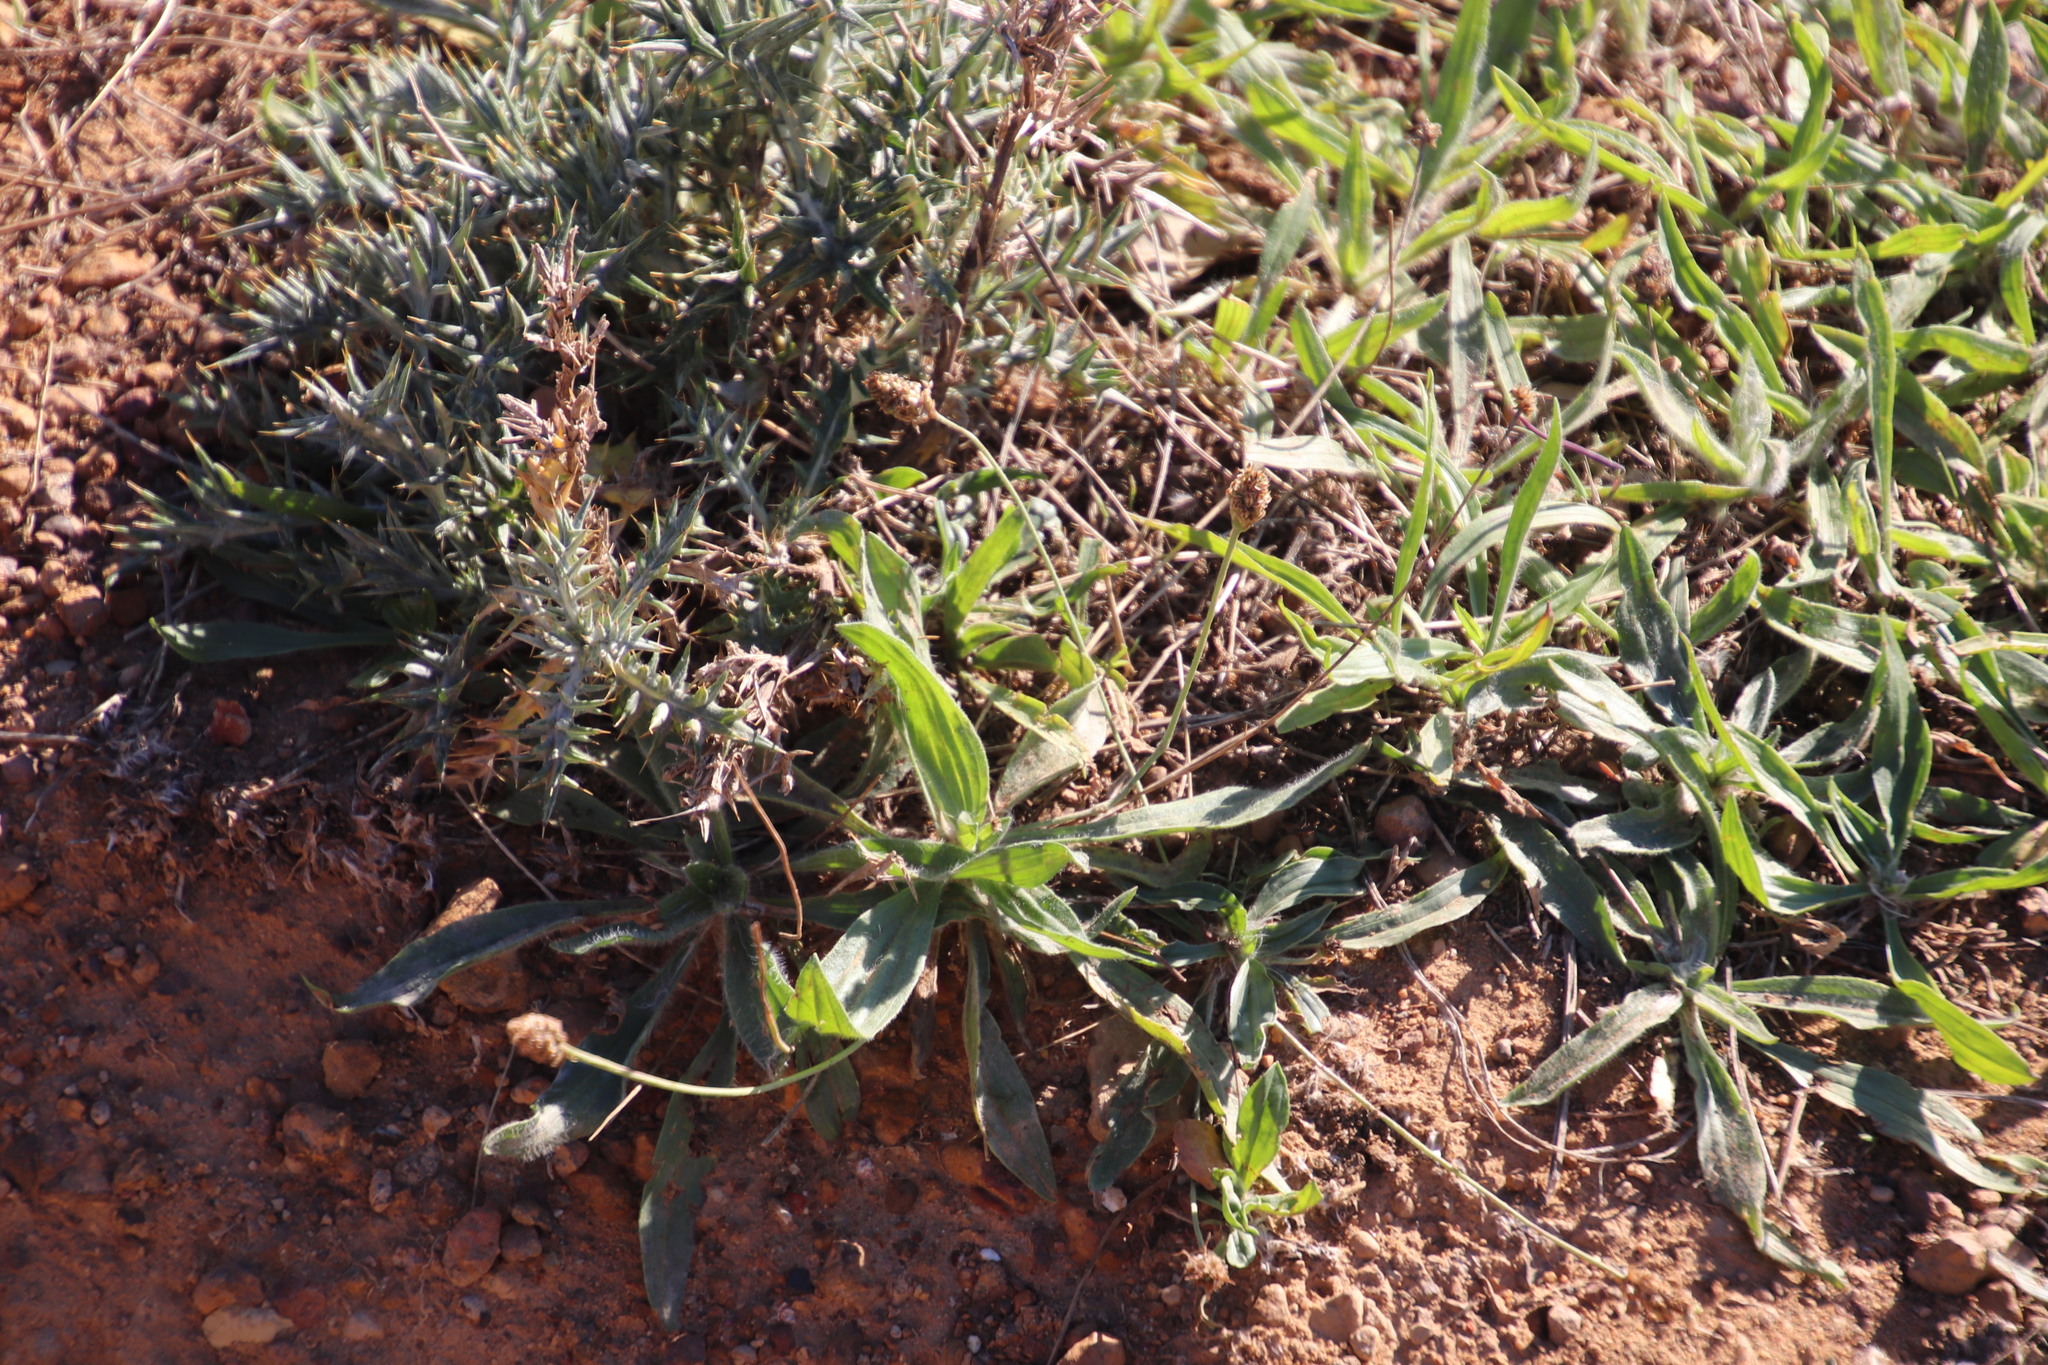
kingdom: Plantae
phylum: Tracheophyta
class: Magnoliopsida
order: Lamiales
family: Plantaginaceae
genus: Plantago
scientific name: Plantago lanceolata
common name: Ribwort plantain
